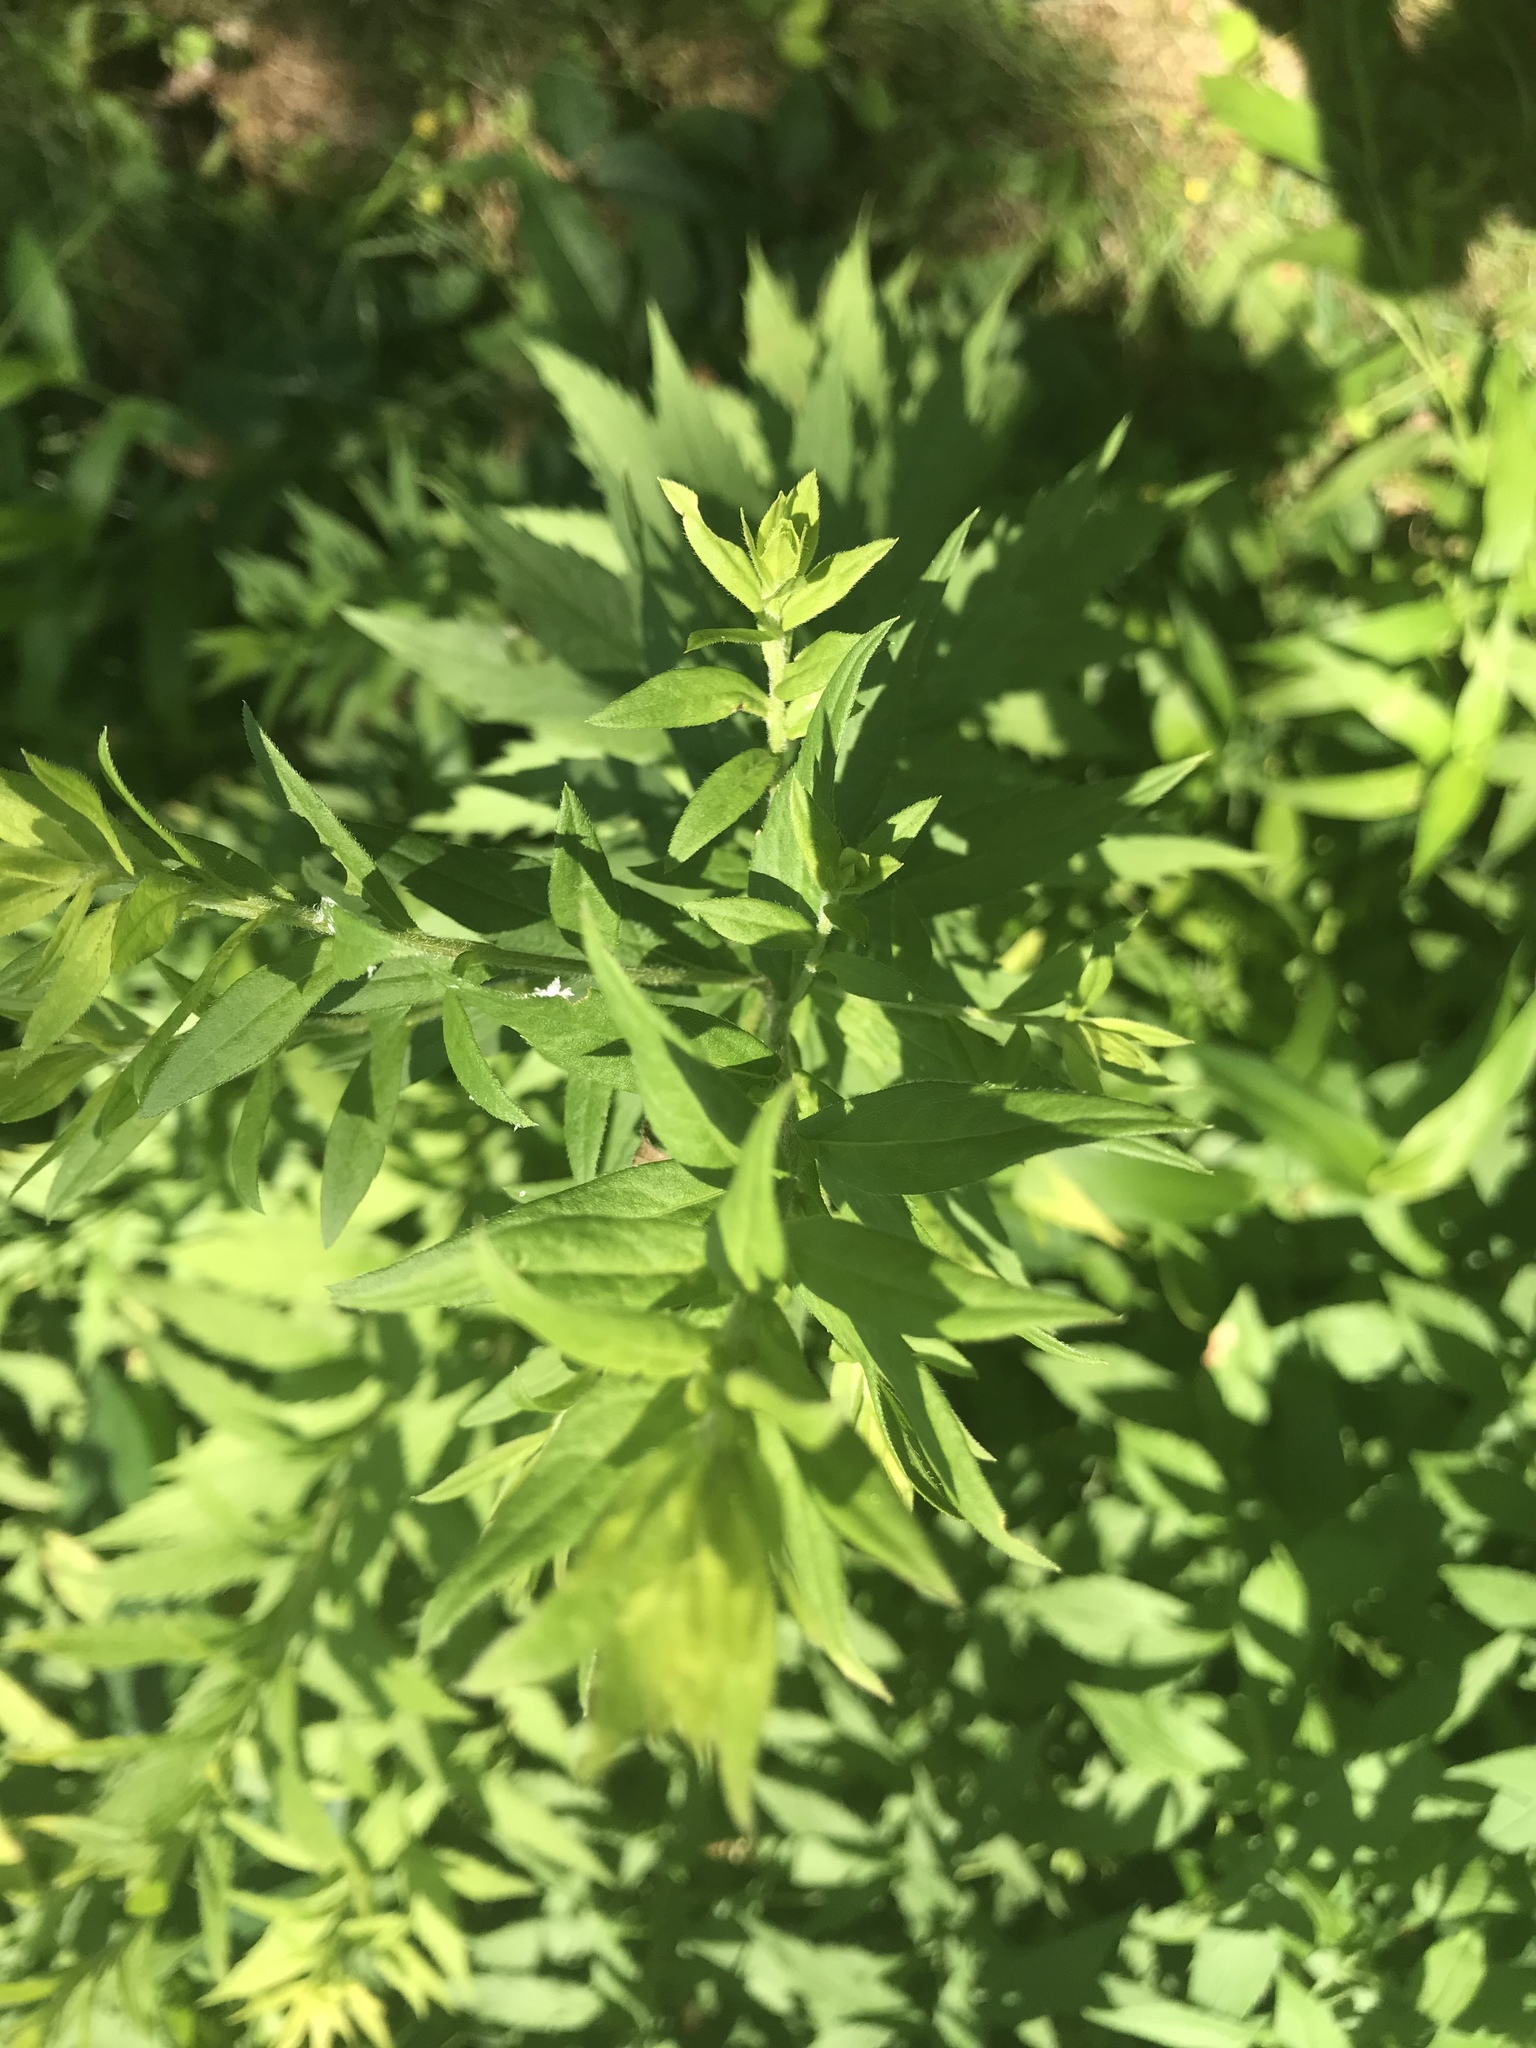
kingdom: Plantae
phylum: Tracheophyta
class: Magnoliopsida
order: Asterales
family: Asteraceae
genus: Solidago
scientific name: Solidago altissima
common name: Late goldenrod
